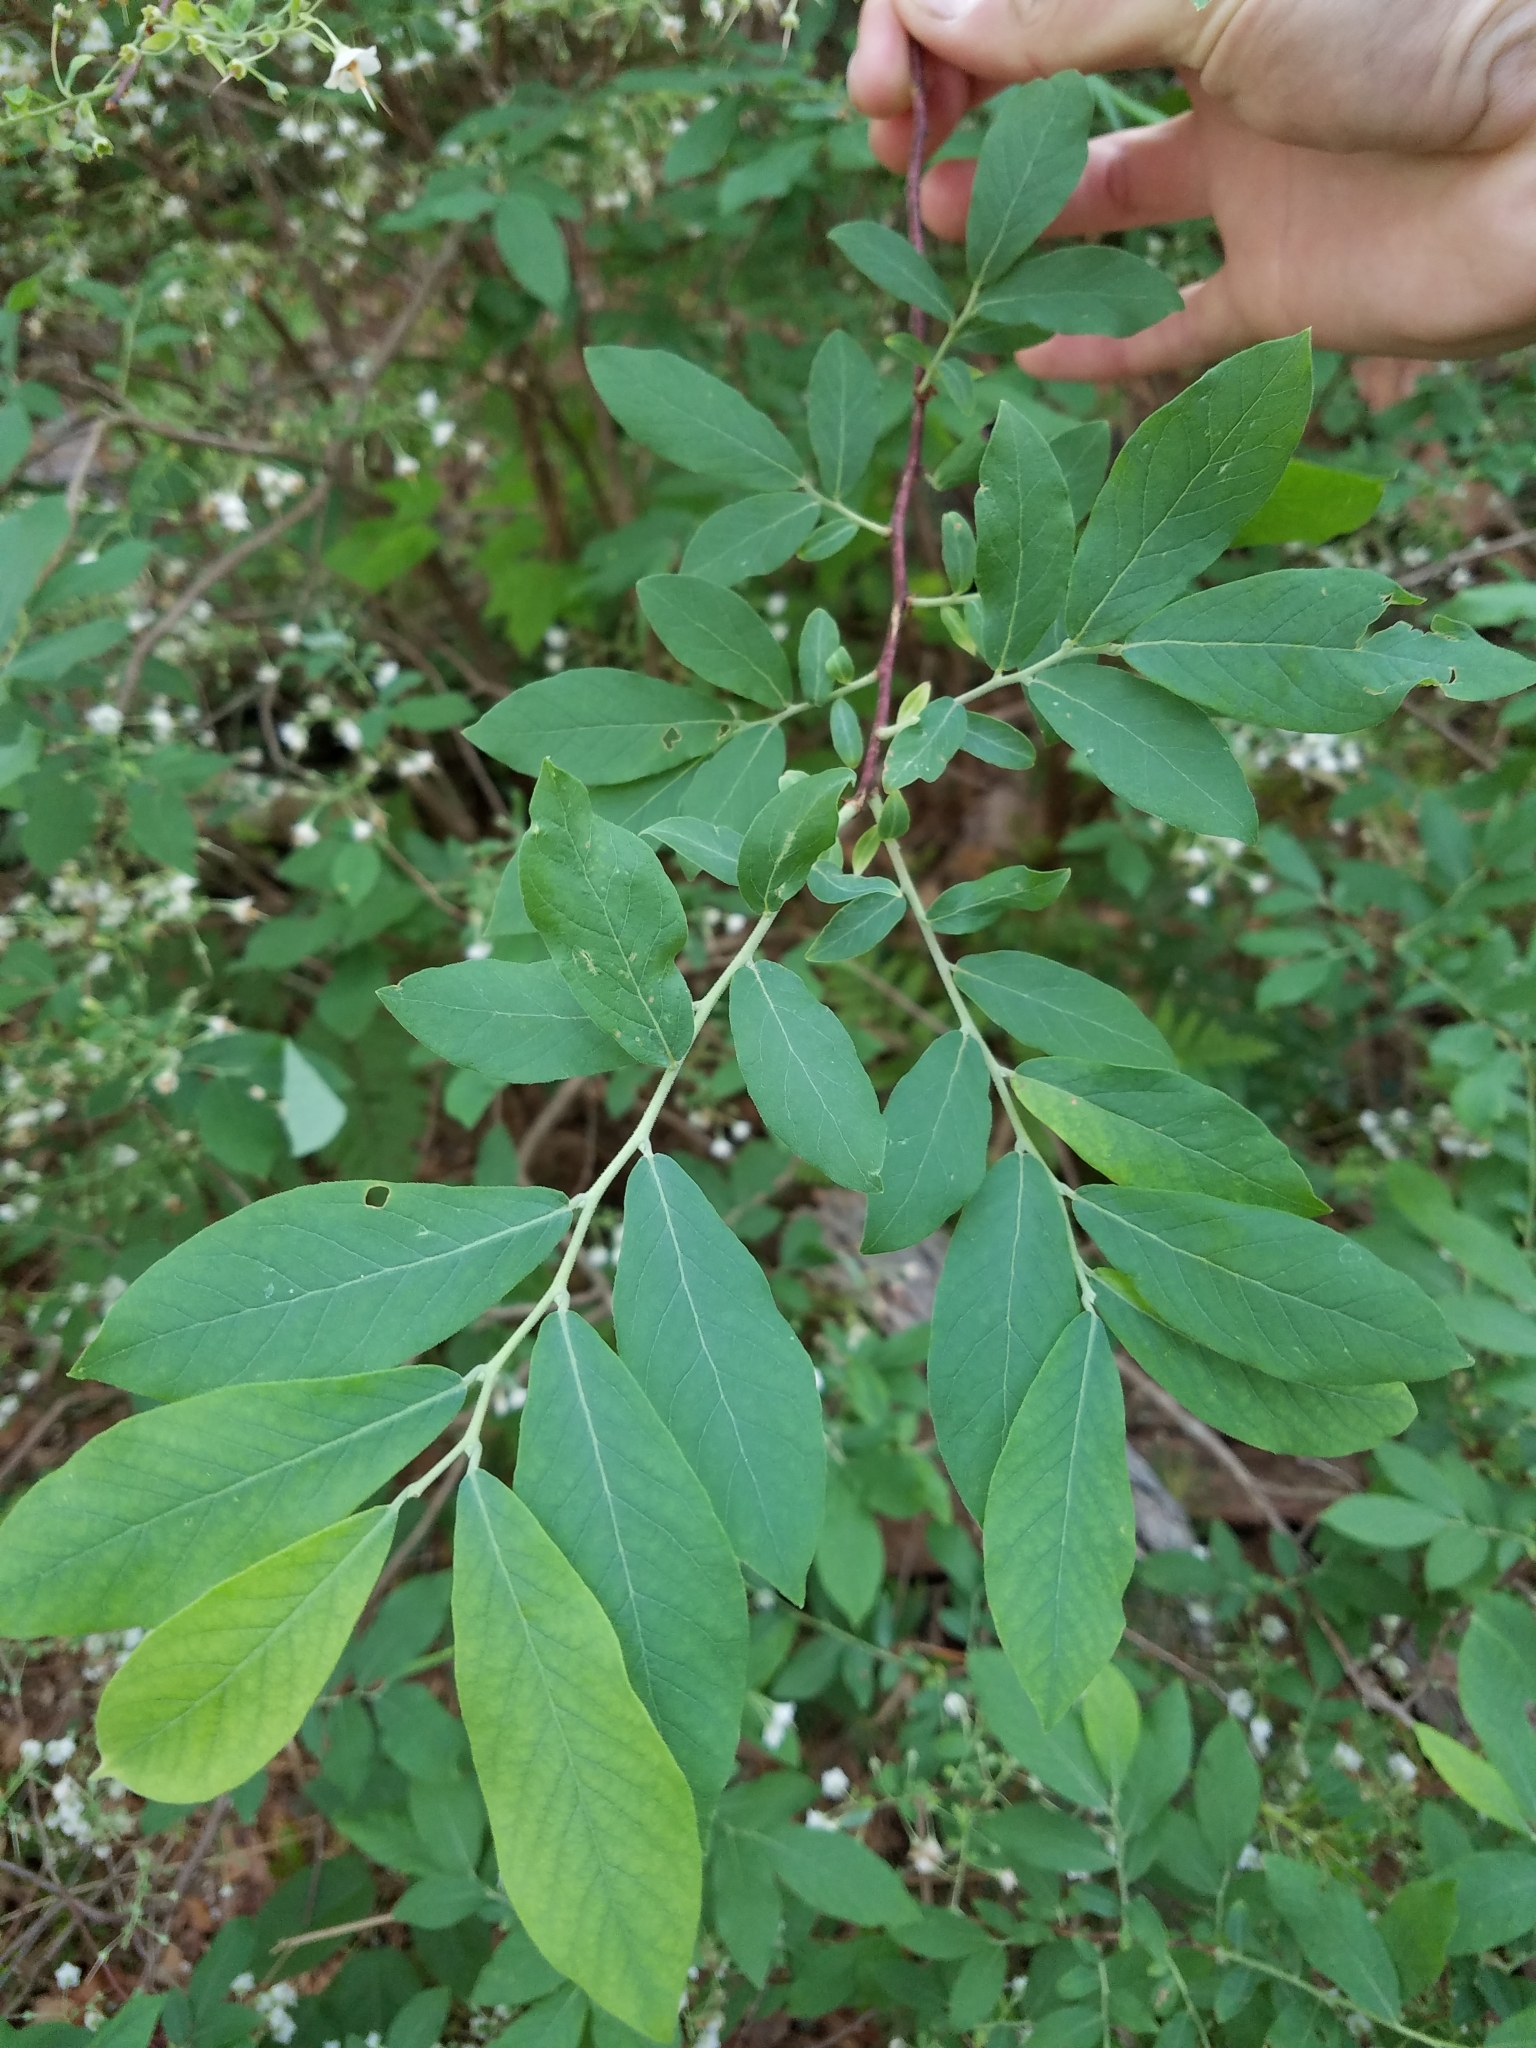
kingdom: Plantae
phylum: Tracheophyta
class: Magnoliopsida
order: Ericales
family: Ericaceae
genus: Vaccinium
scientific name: Vaccinium stamineum
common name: Deerberry
